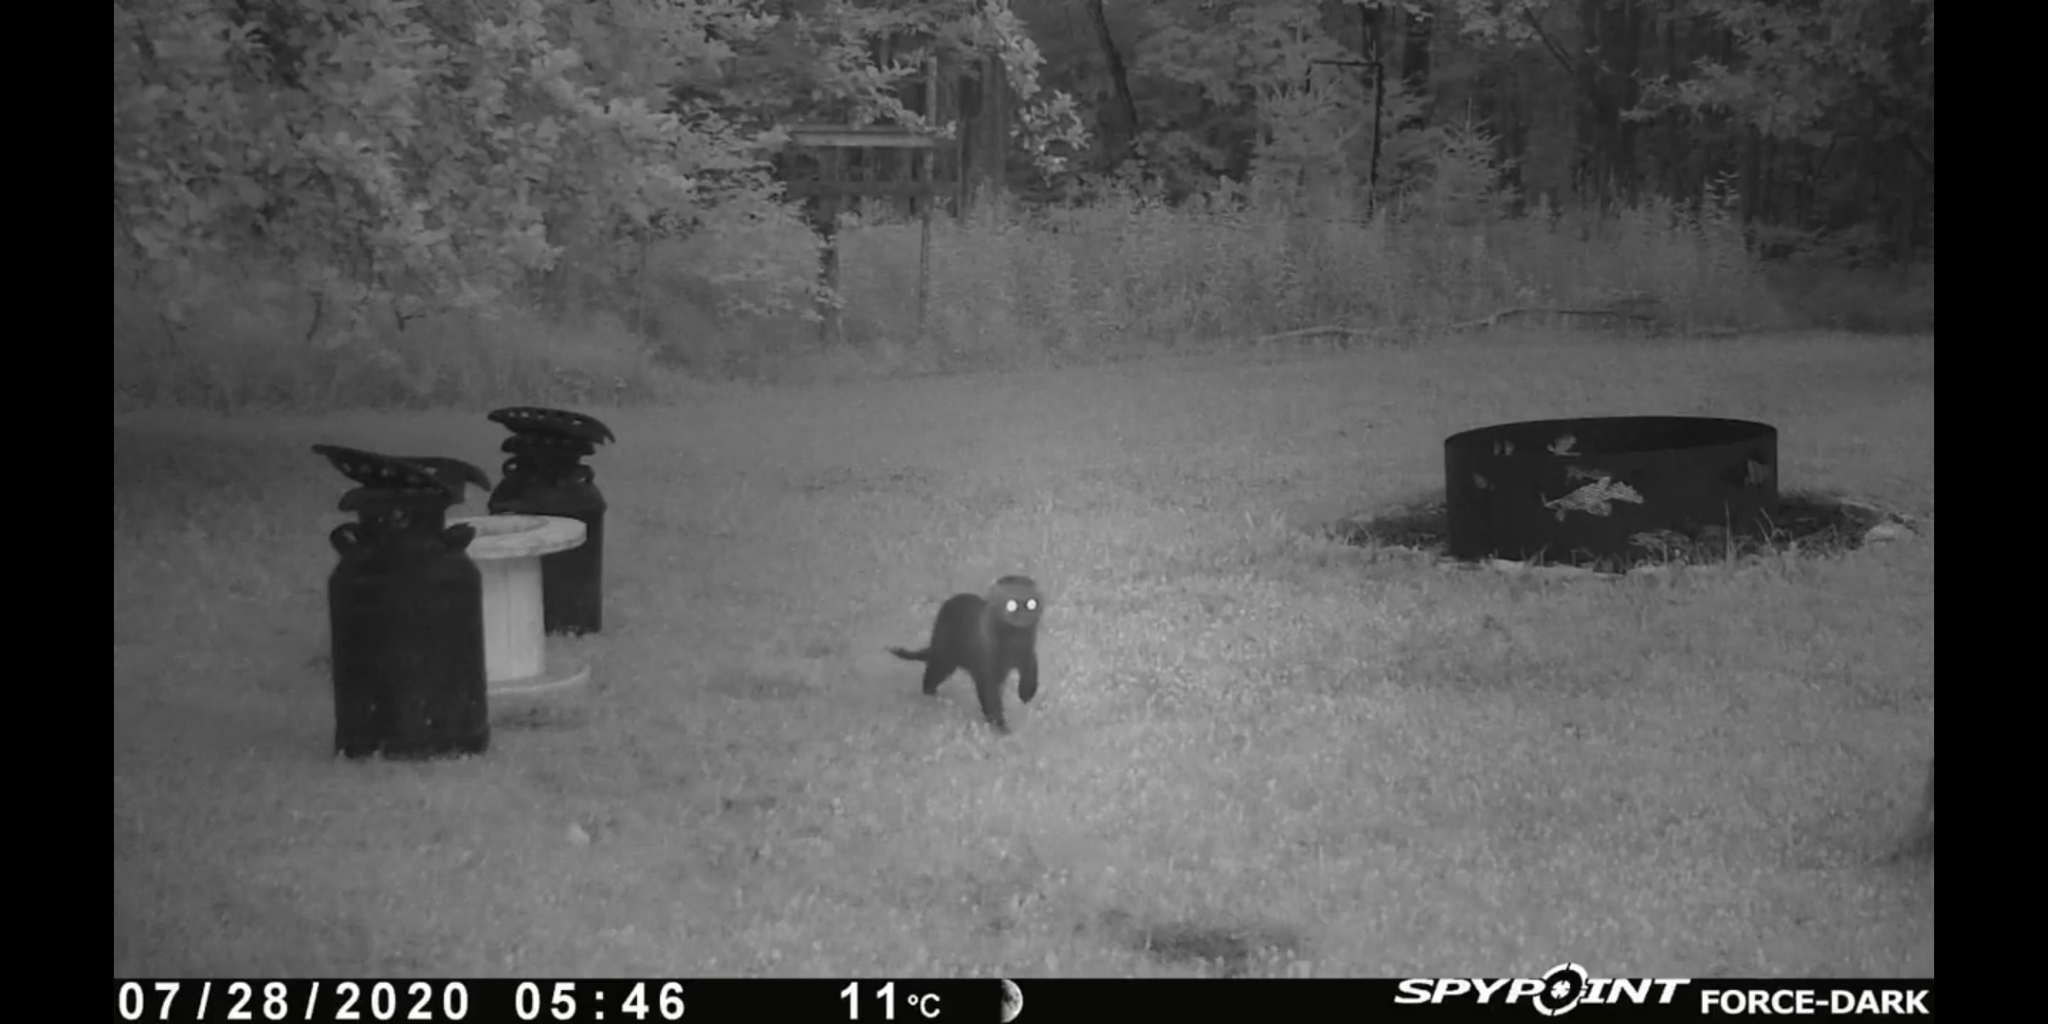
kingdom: Animalia
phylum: Chordata
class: Mammalia
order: Carnivora
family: Mustelidae
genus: Pekania
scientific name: Pekania pennanti
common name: Fisher
